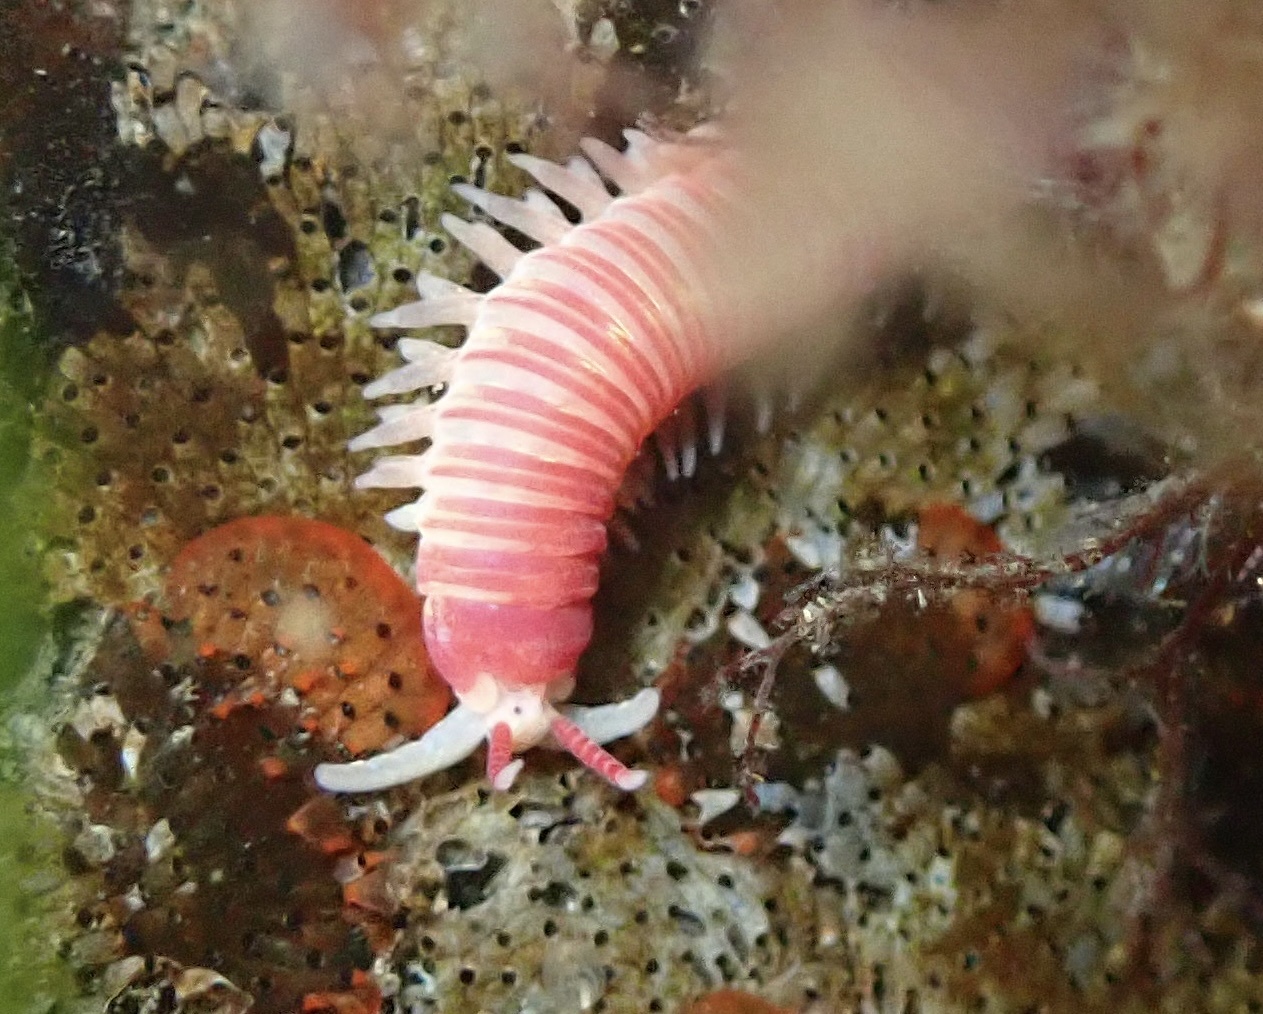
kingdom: Animalia
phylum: Annelida
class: Polychaeta
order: Eunicida
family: Dorvilleidae
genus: Dorvillea
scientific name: Dorvillea moniloceras
